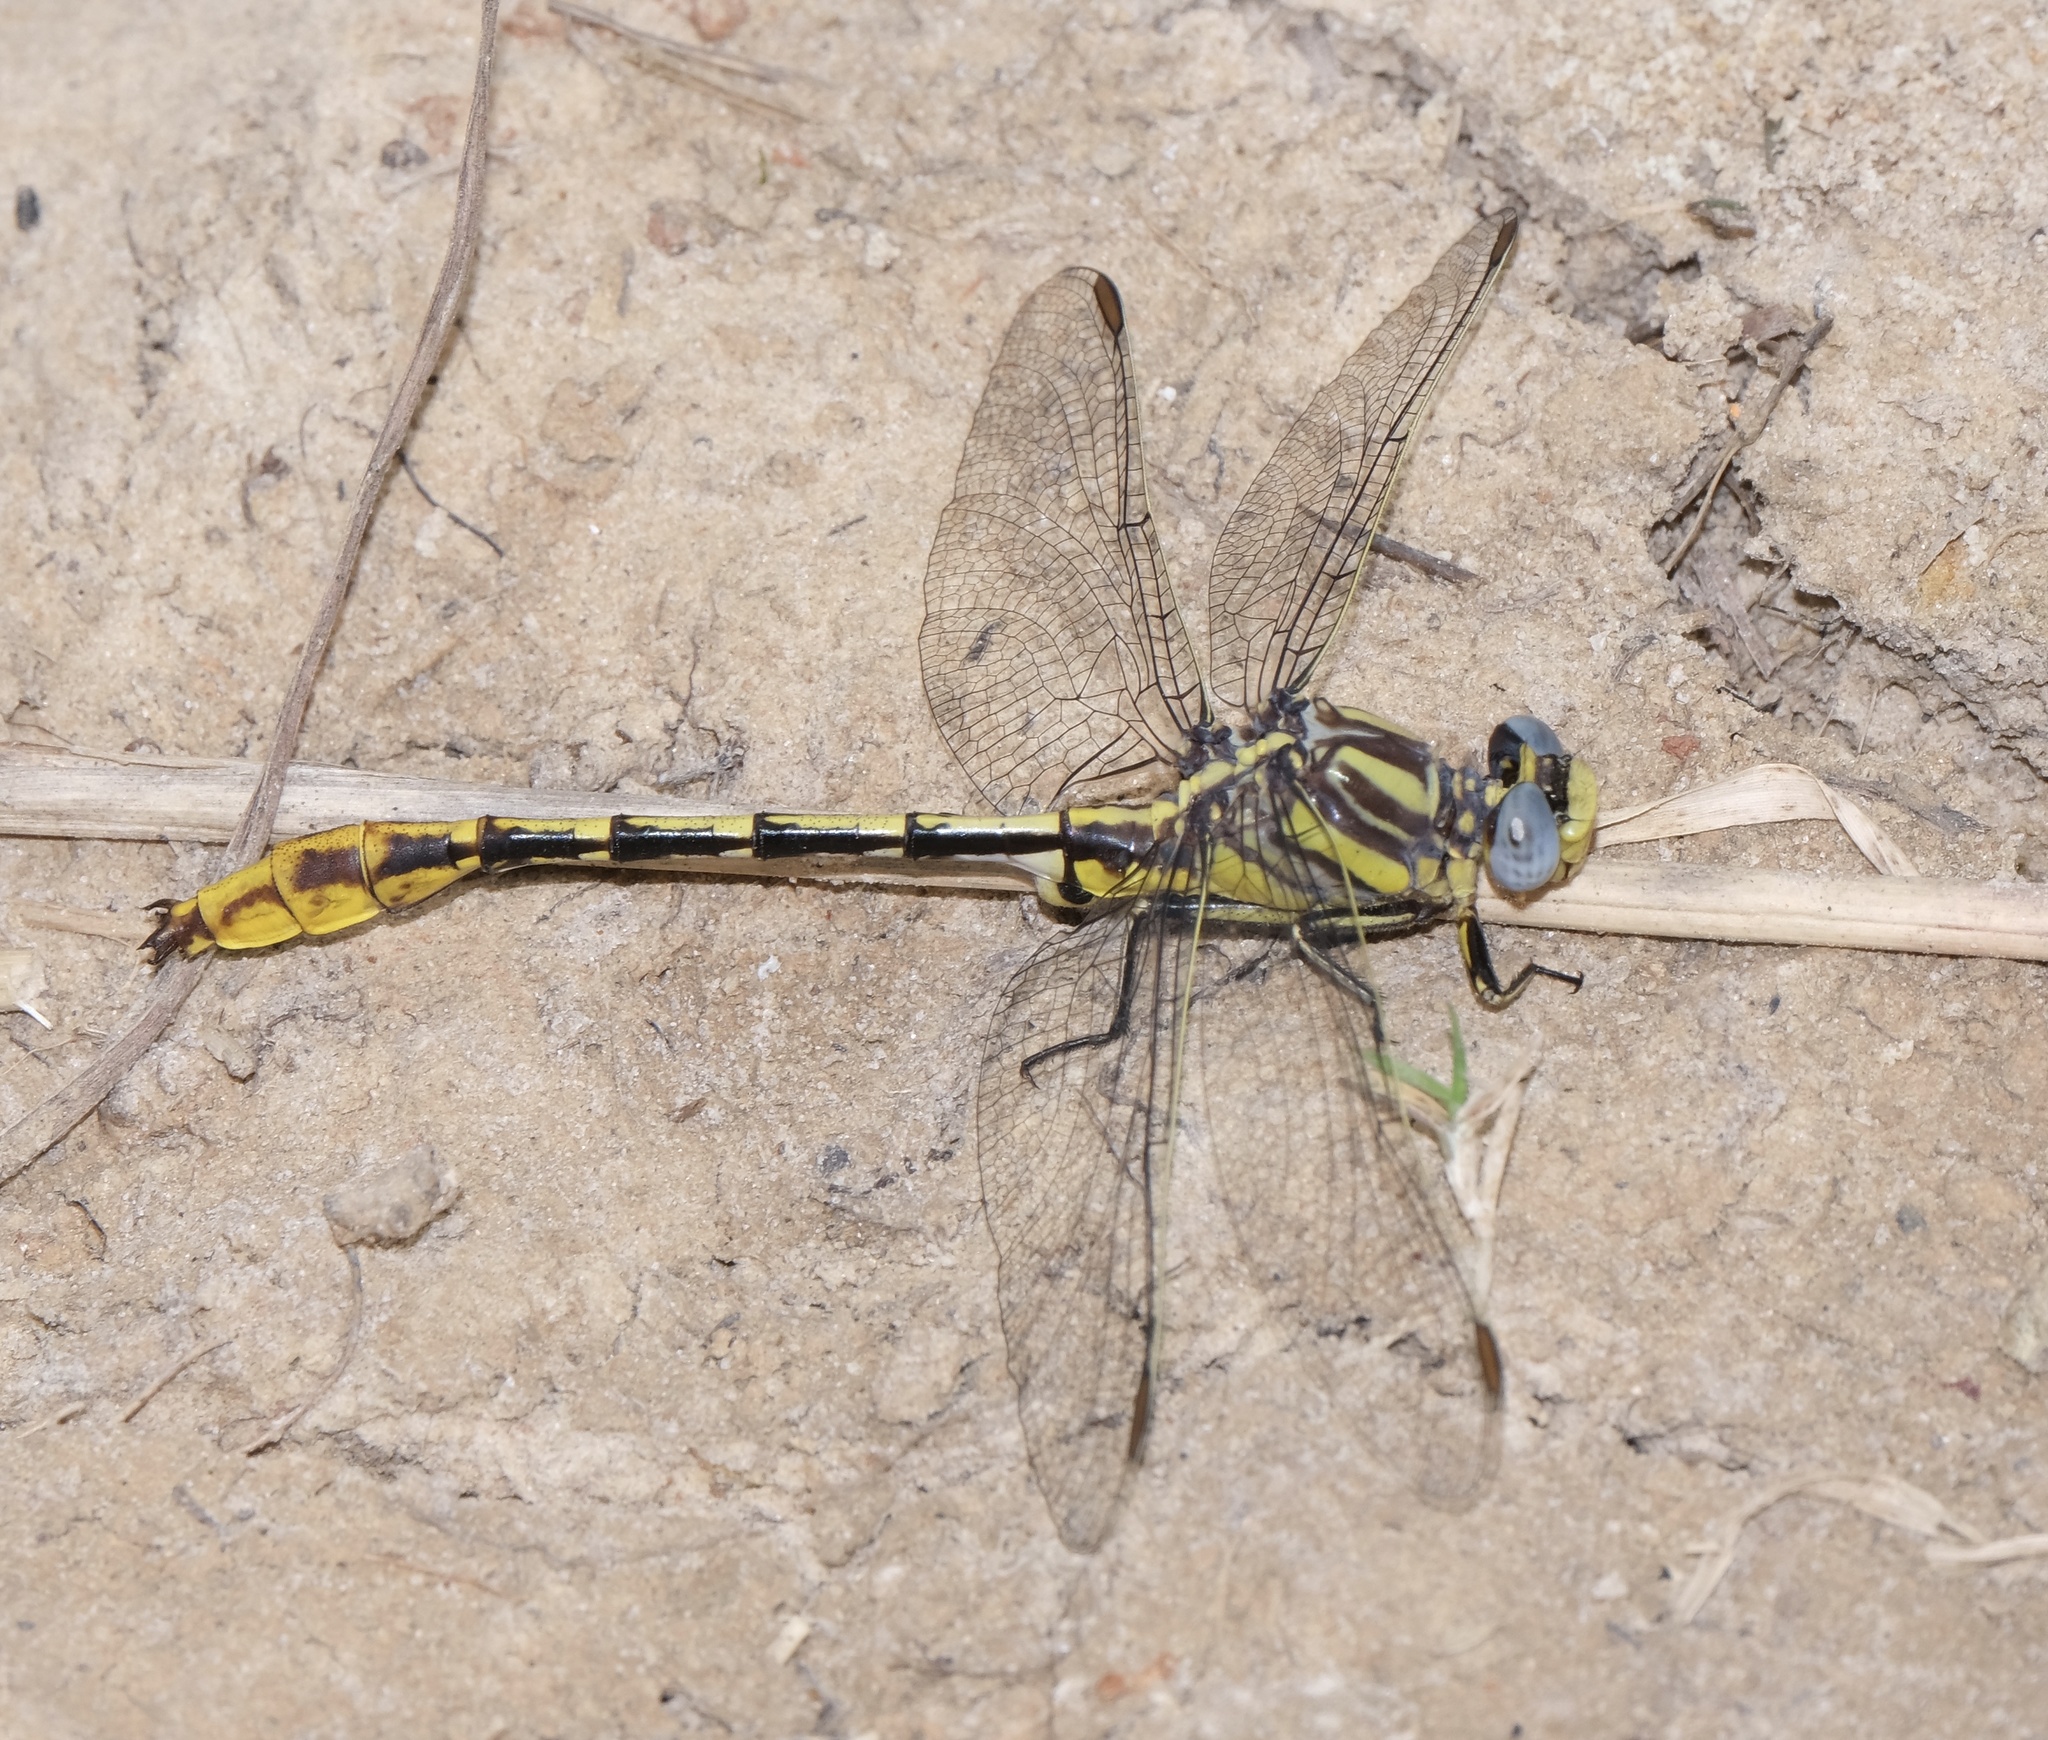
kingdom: Animalia
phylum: Arthropoda
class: Insecta
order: Odonata
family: Gomphidae
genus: Phanogomphus
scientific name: Phanogomphus militaris
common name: Sulphur-tipped clubtail
